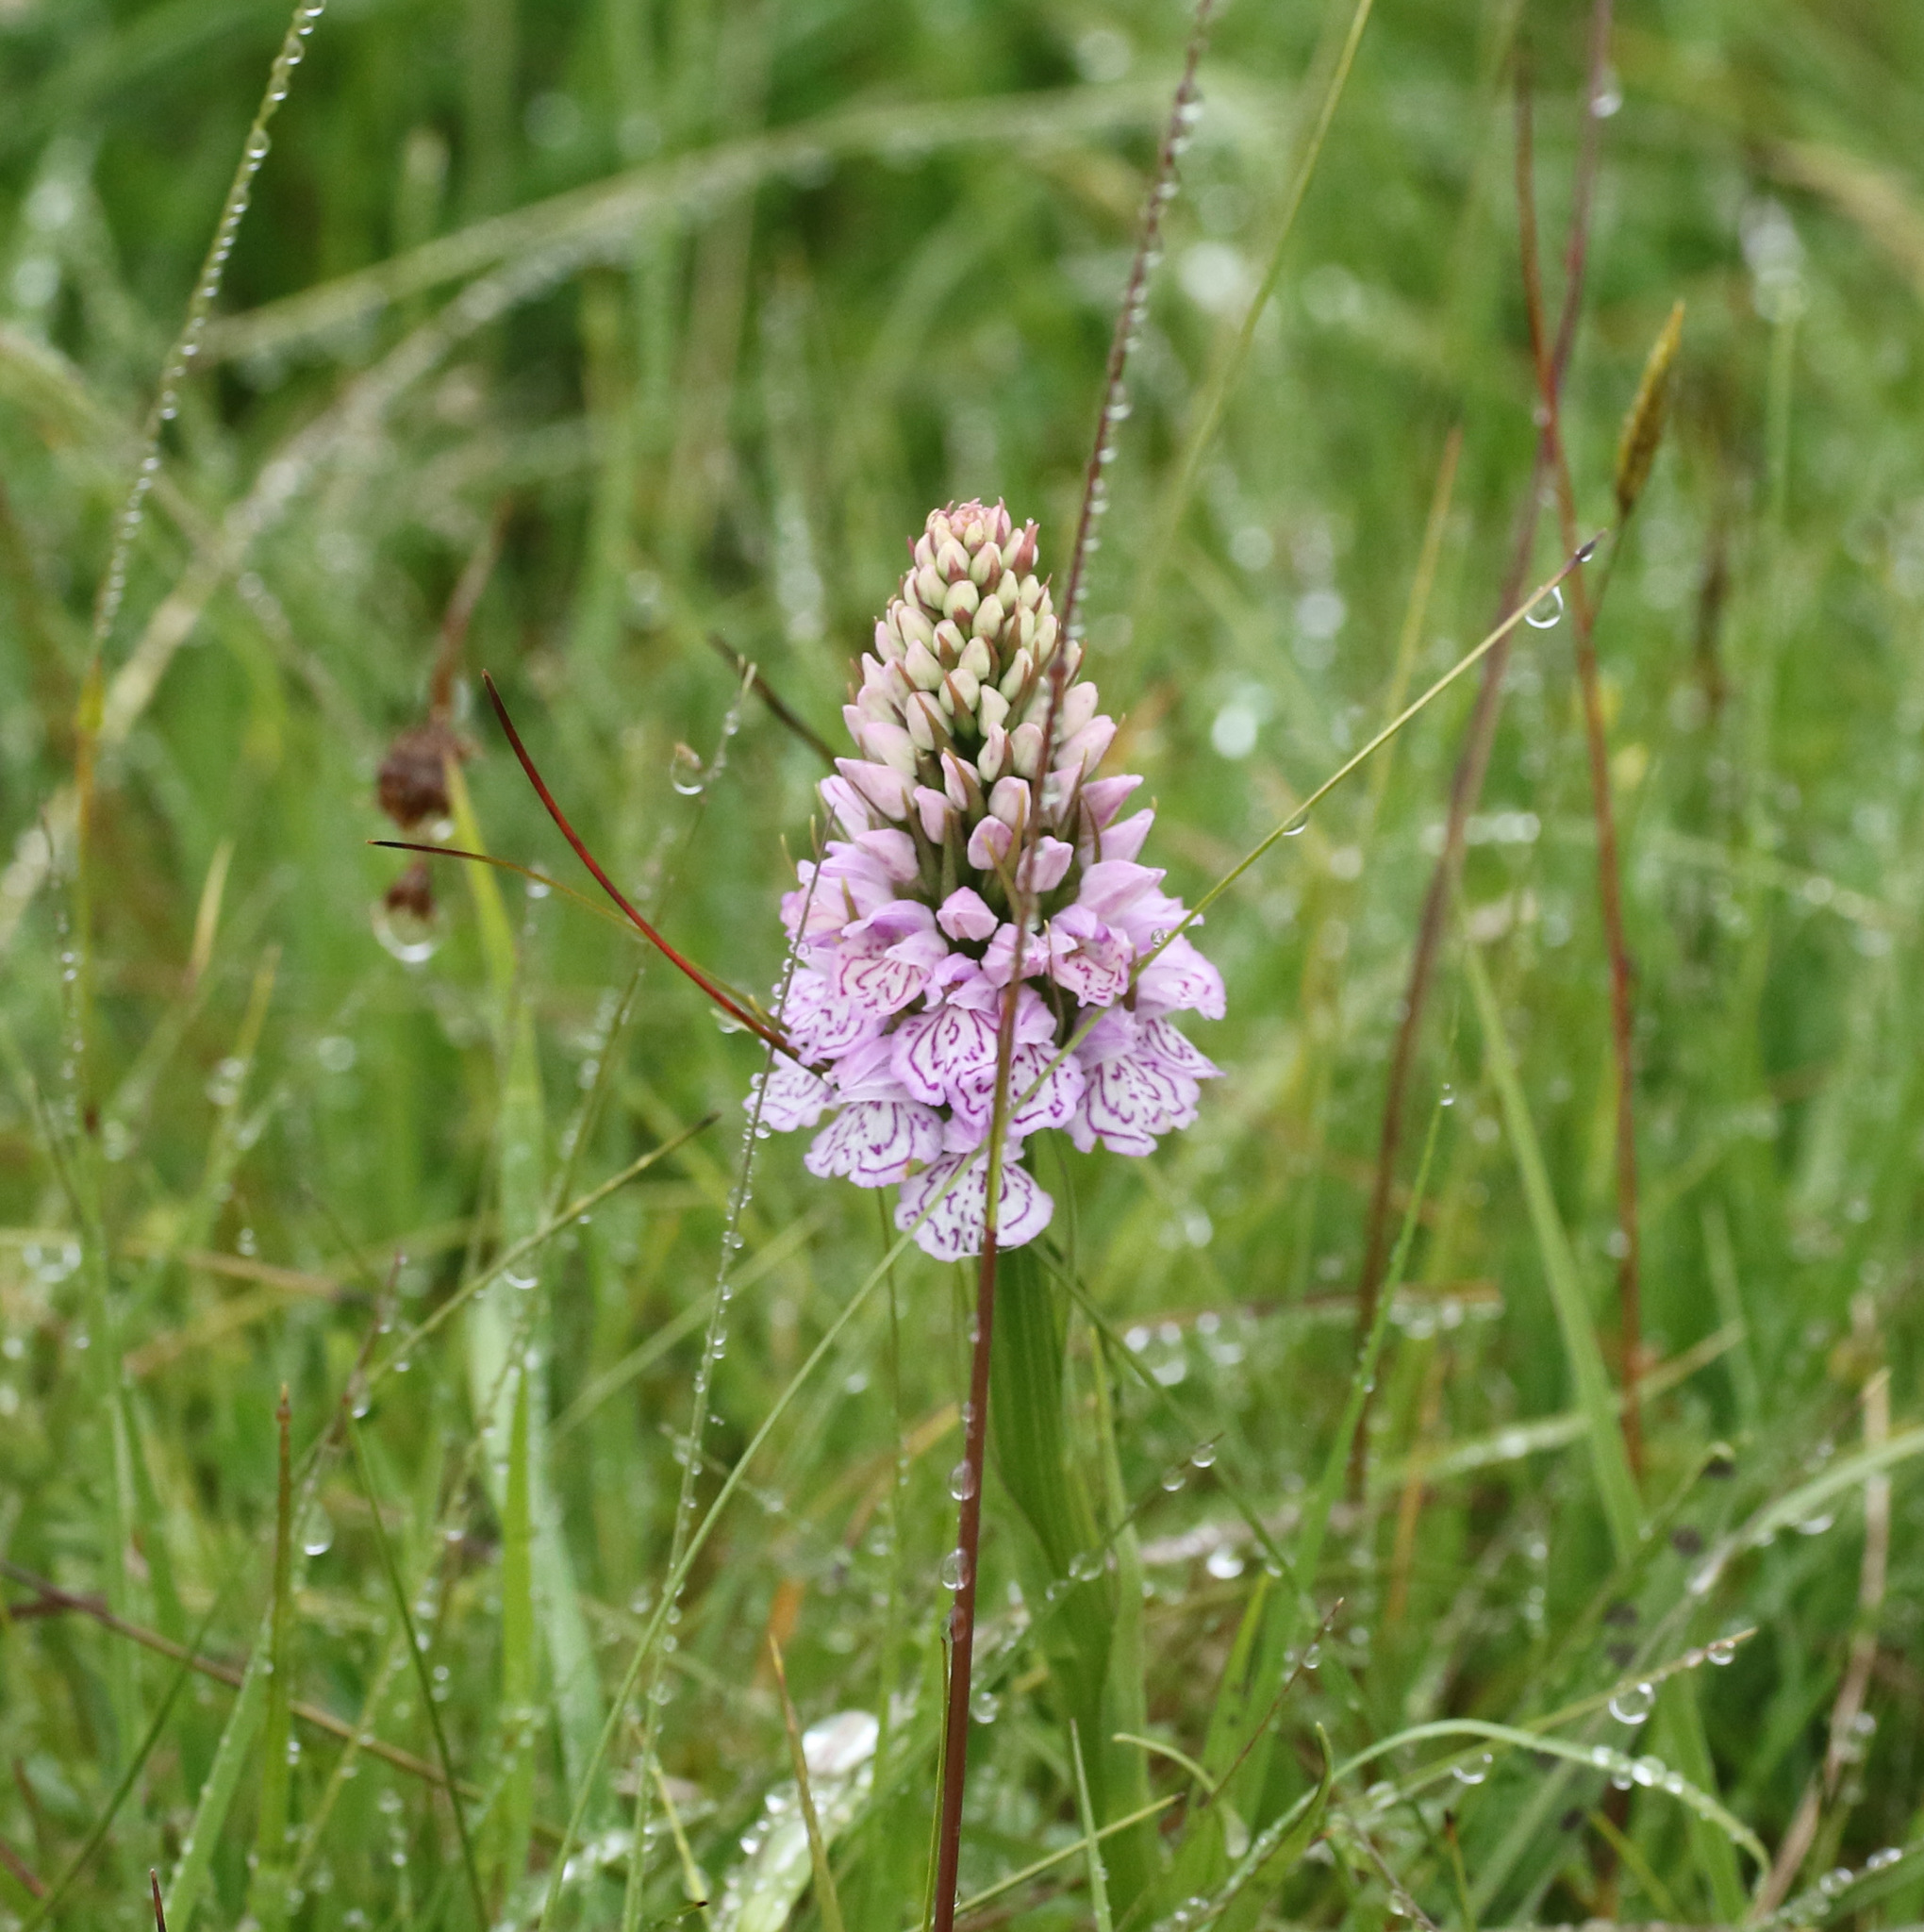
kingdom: Plantae
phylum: Tracheophyta
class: Liliopsida
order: Asparagales
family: Orchidaceae
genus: Dactylorhiza
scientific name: Dactylorhiza maculata
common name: Heath spotted-orchid
